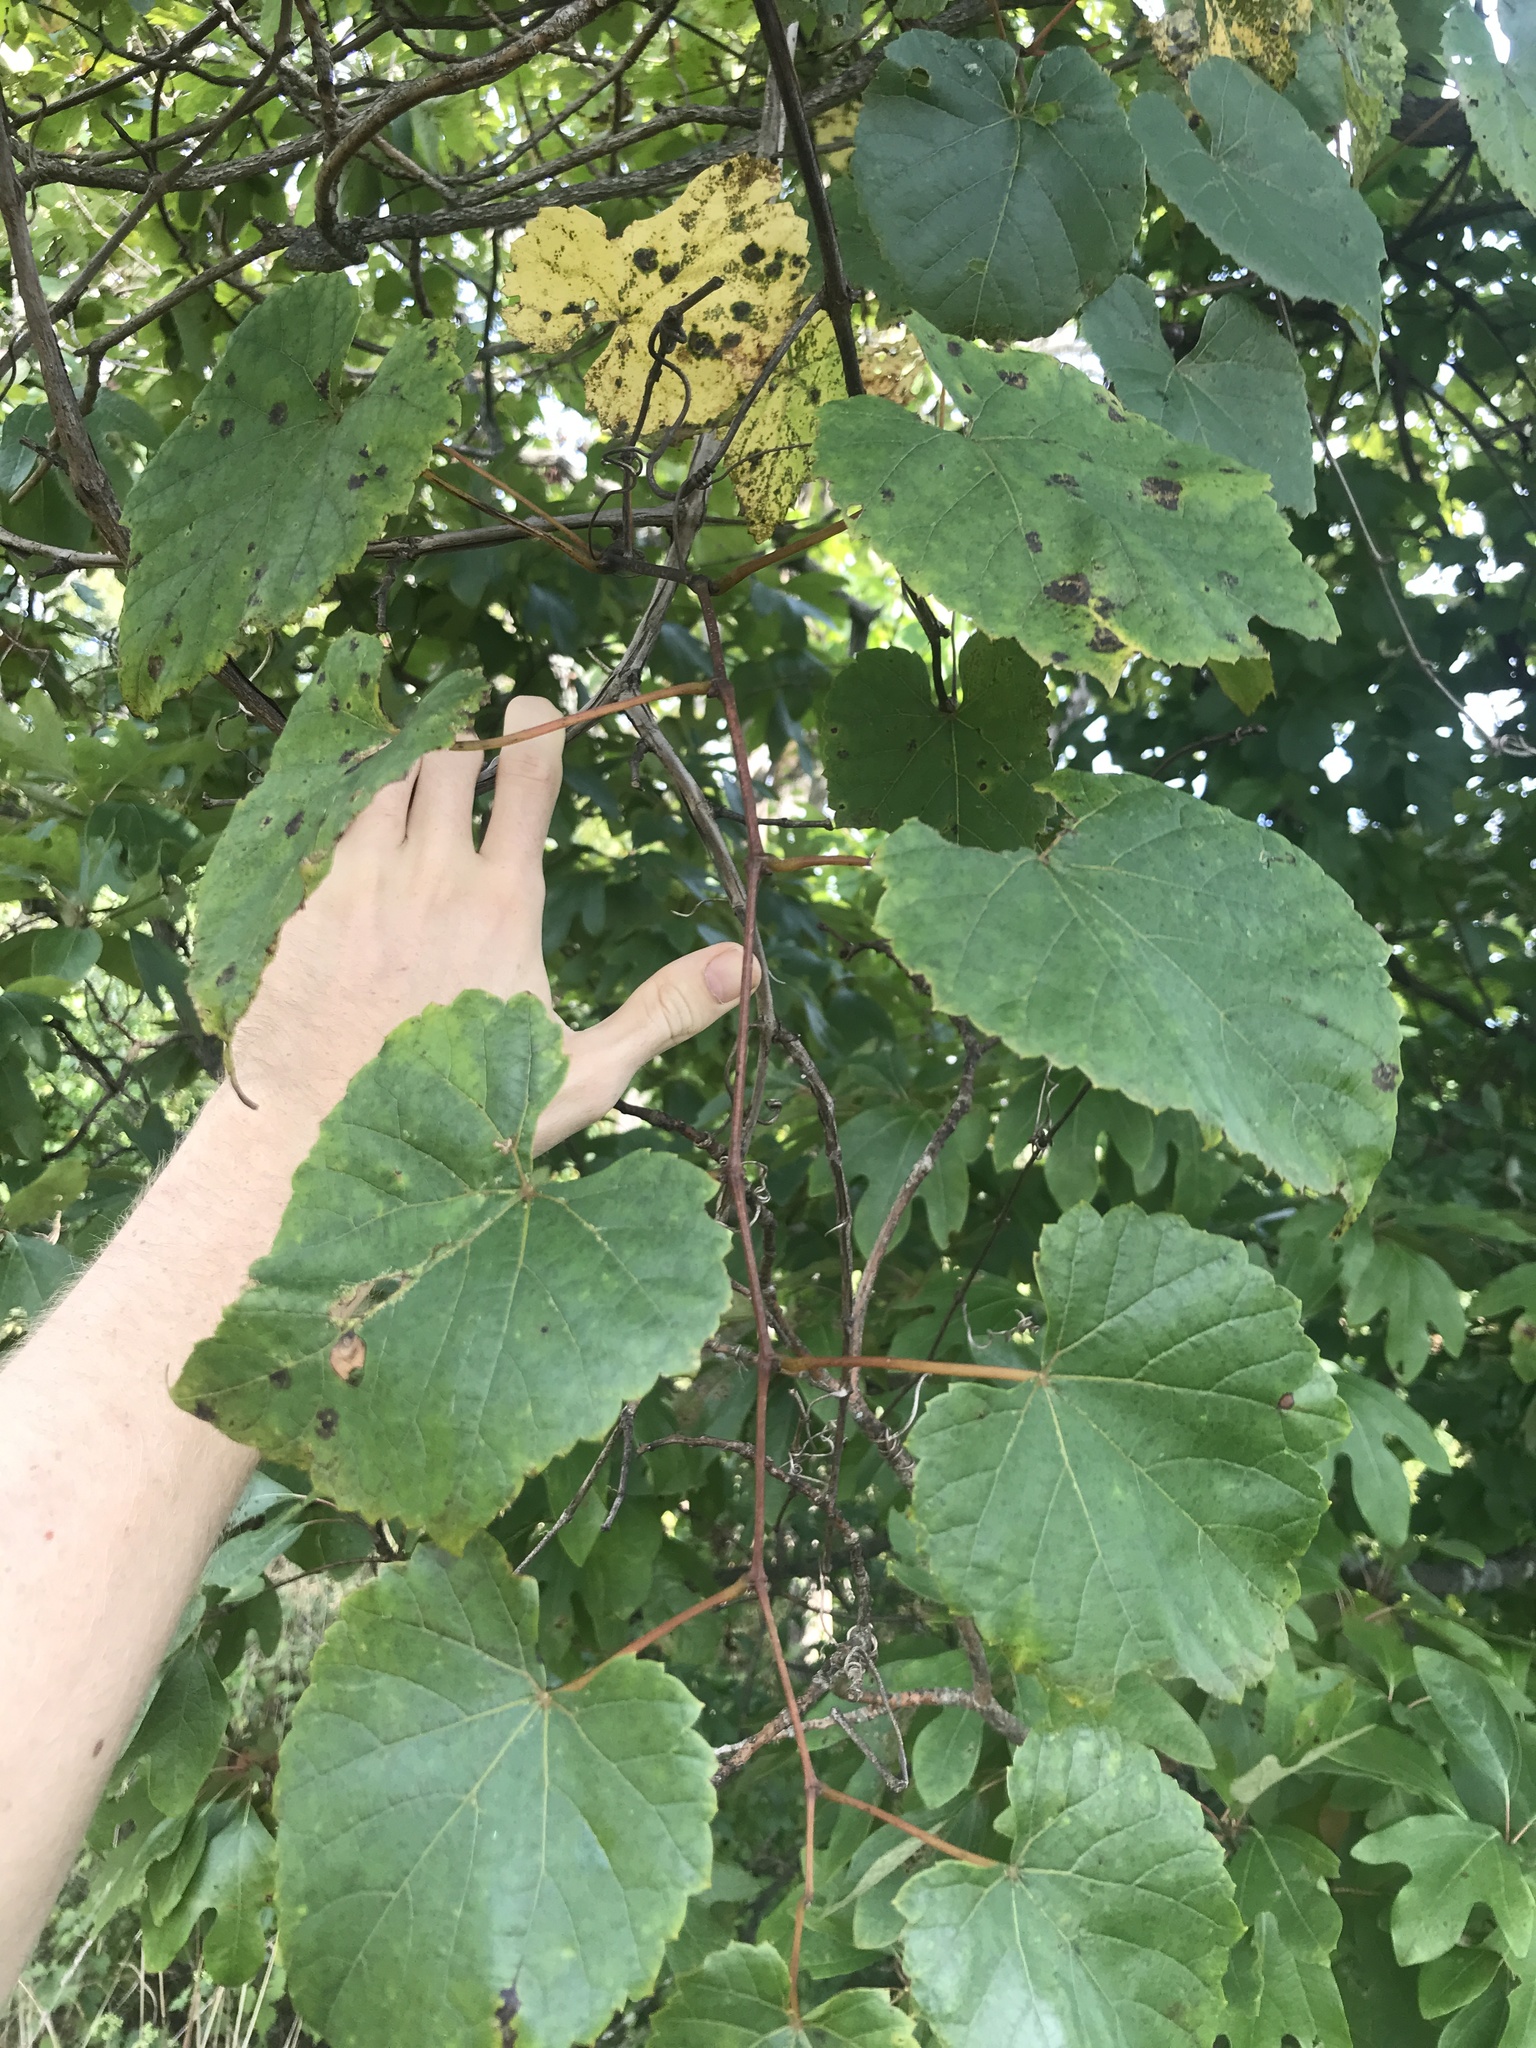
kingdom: Plantae
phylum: Tracheophyta
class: Magnoliopsida
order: Vitales
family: Vitaceae
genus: Vitis
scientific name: Vitis vulpina
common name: Frost grape
